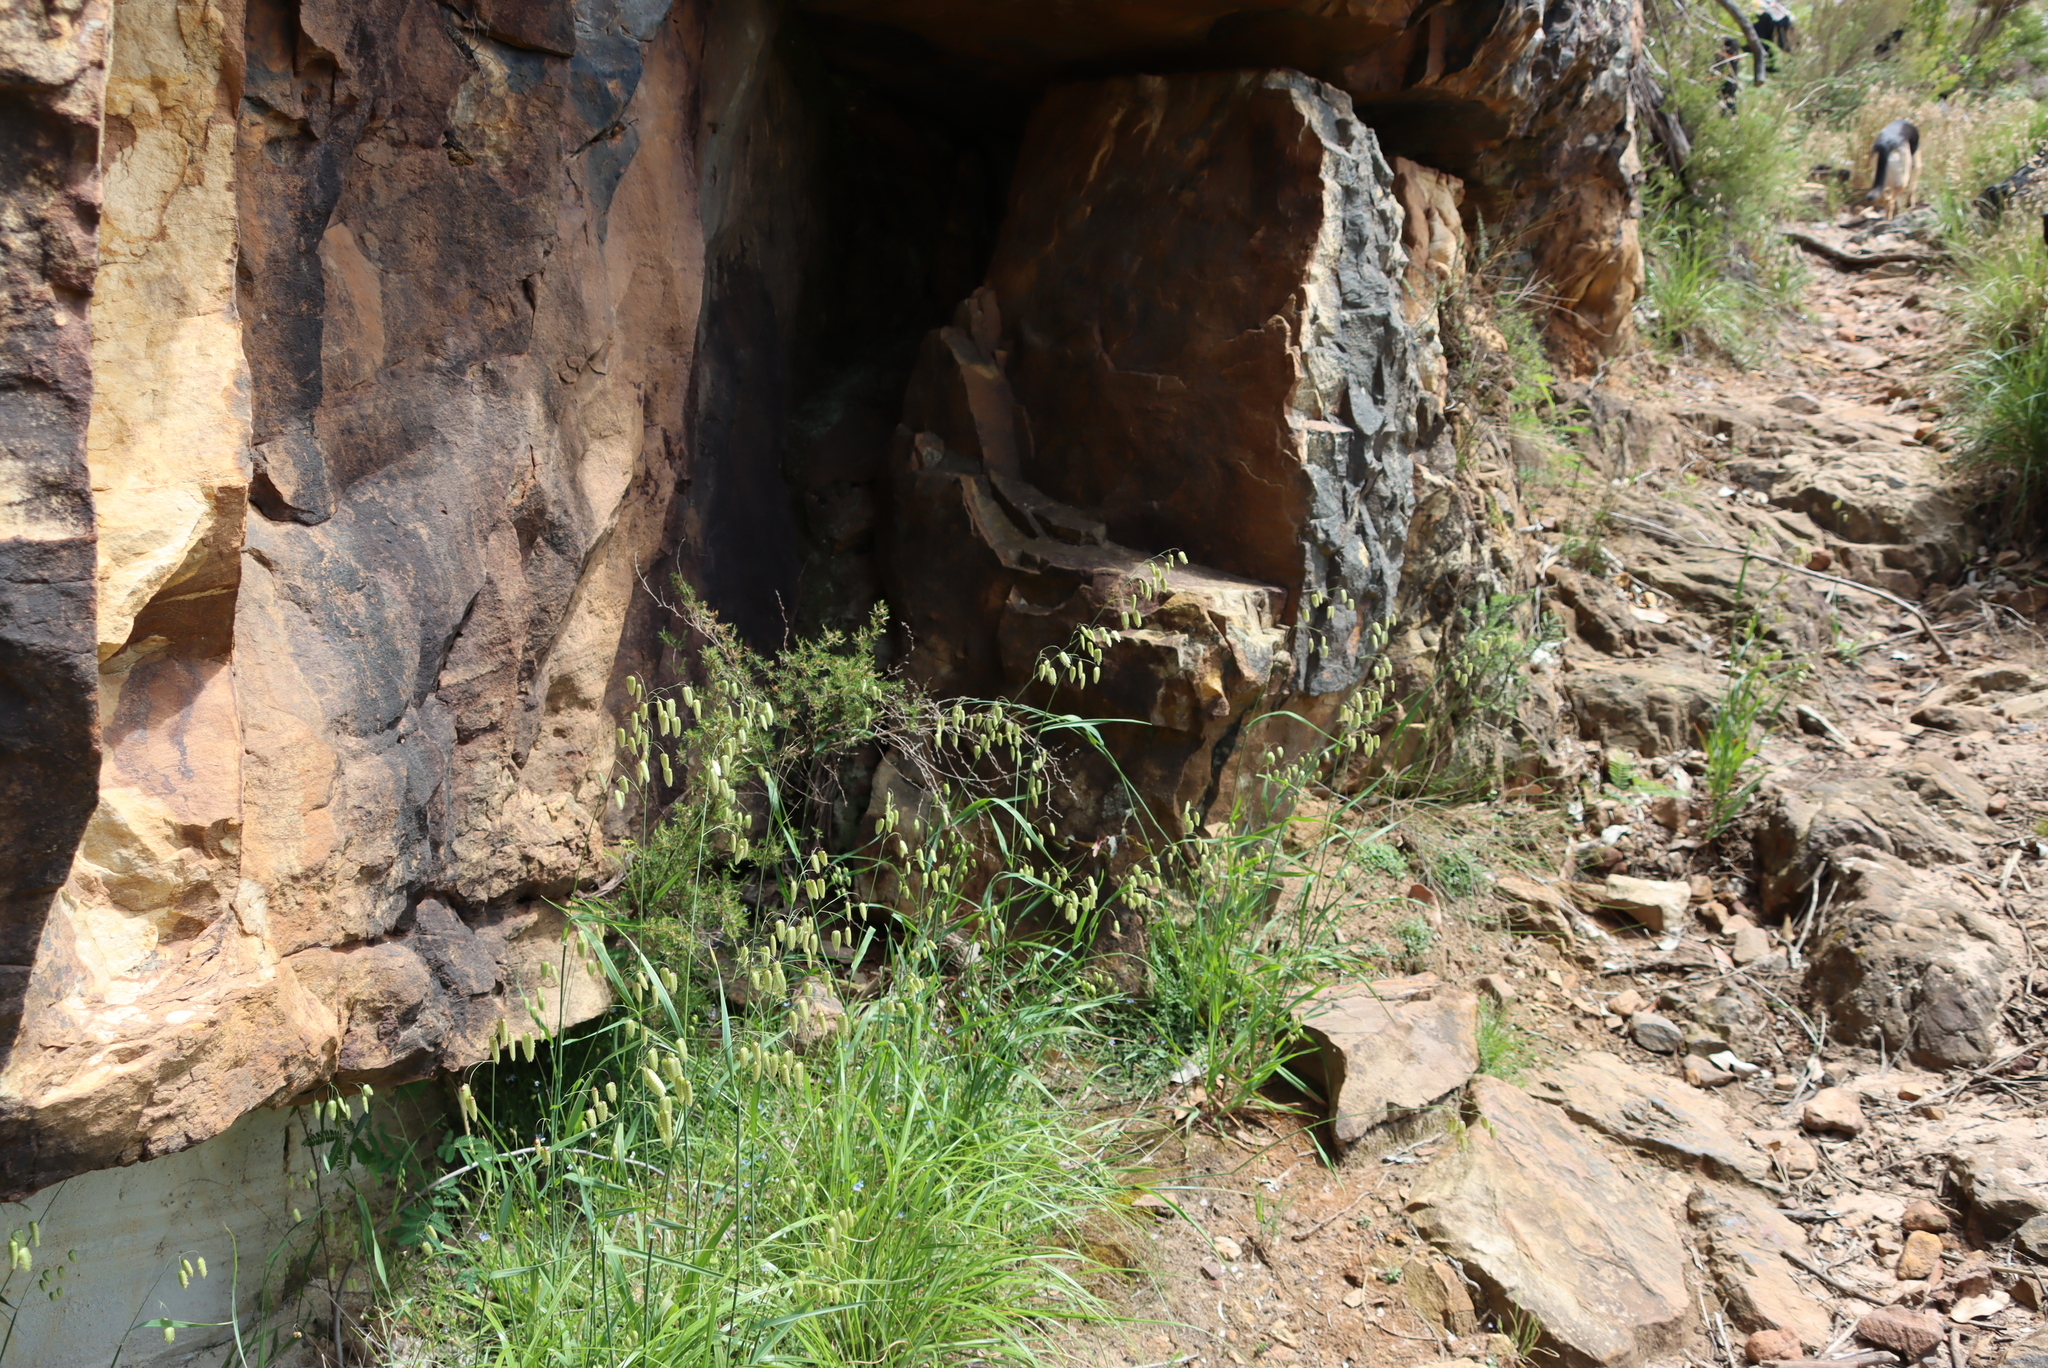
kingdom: Plantae
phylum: Tracheophyta
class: Liliopsida
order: Poales
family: Poaceae
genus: Briza
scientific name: Briza maxima
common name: Big quakinggrass
